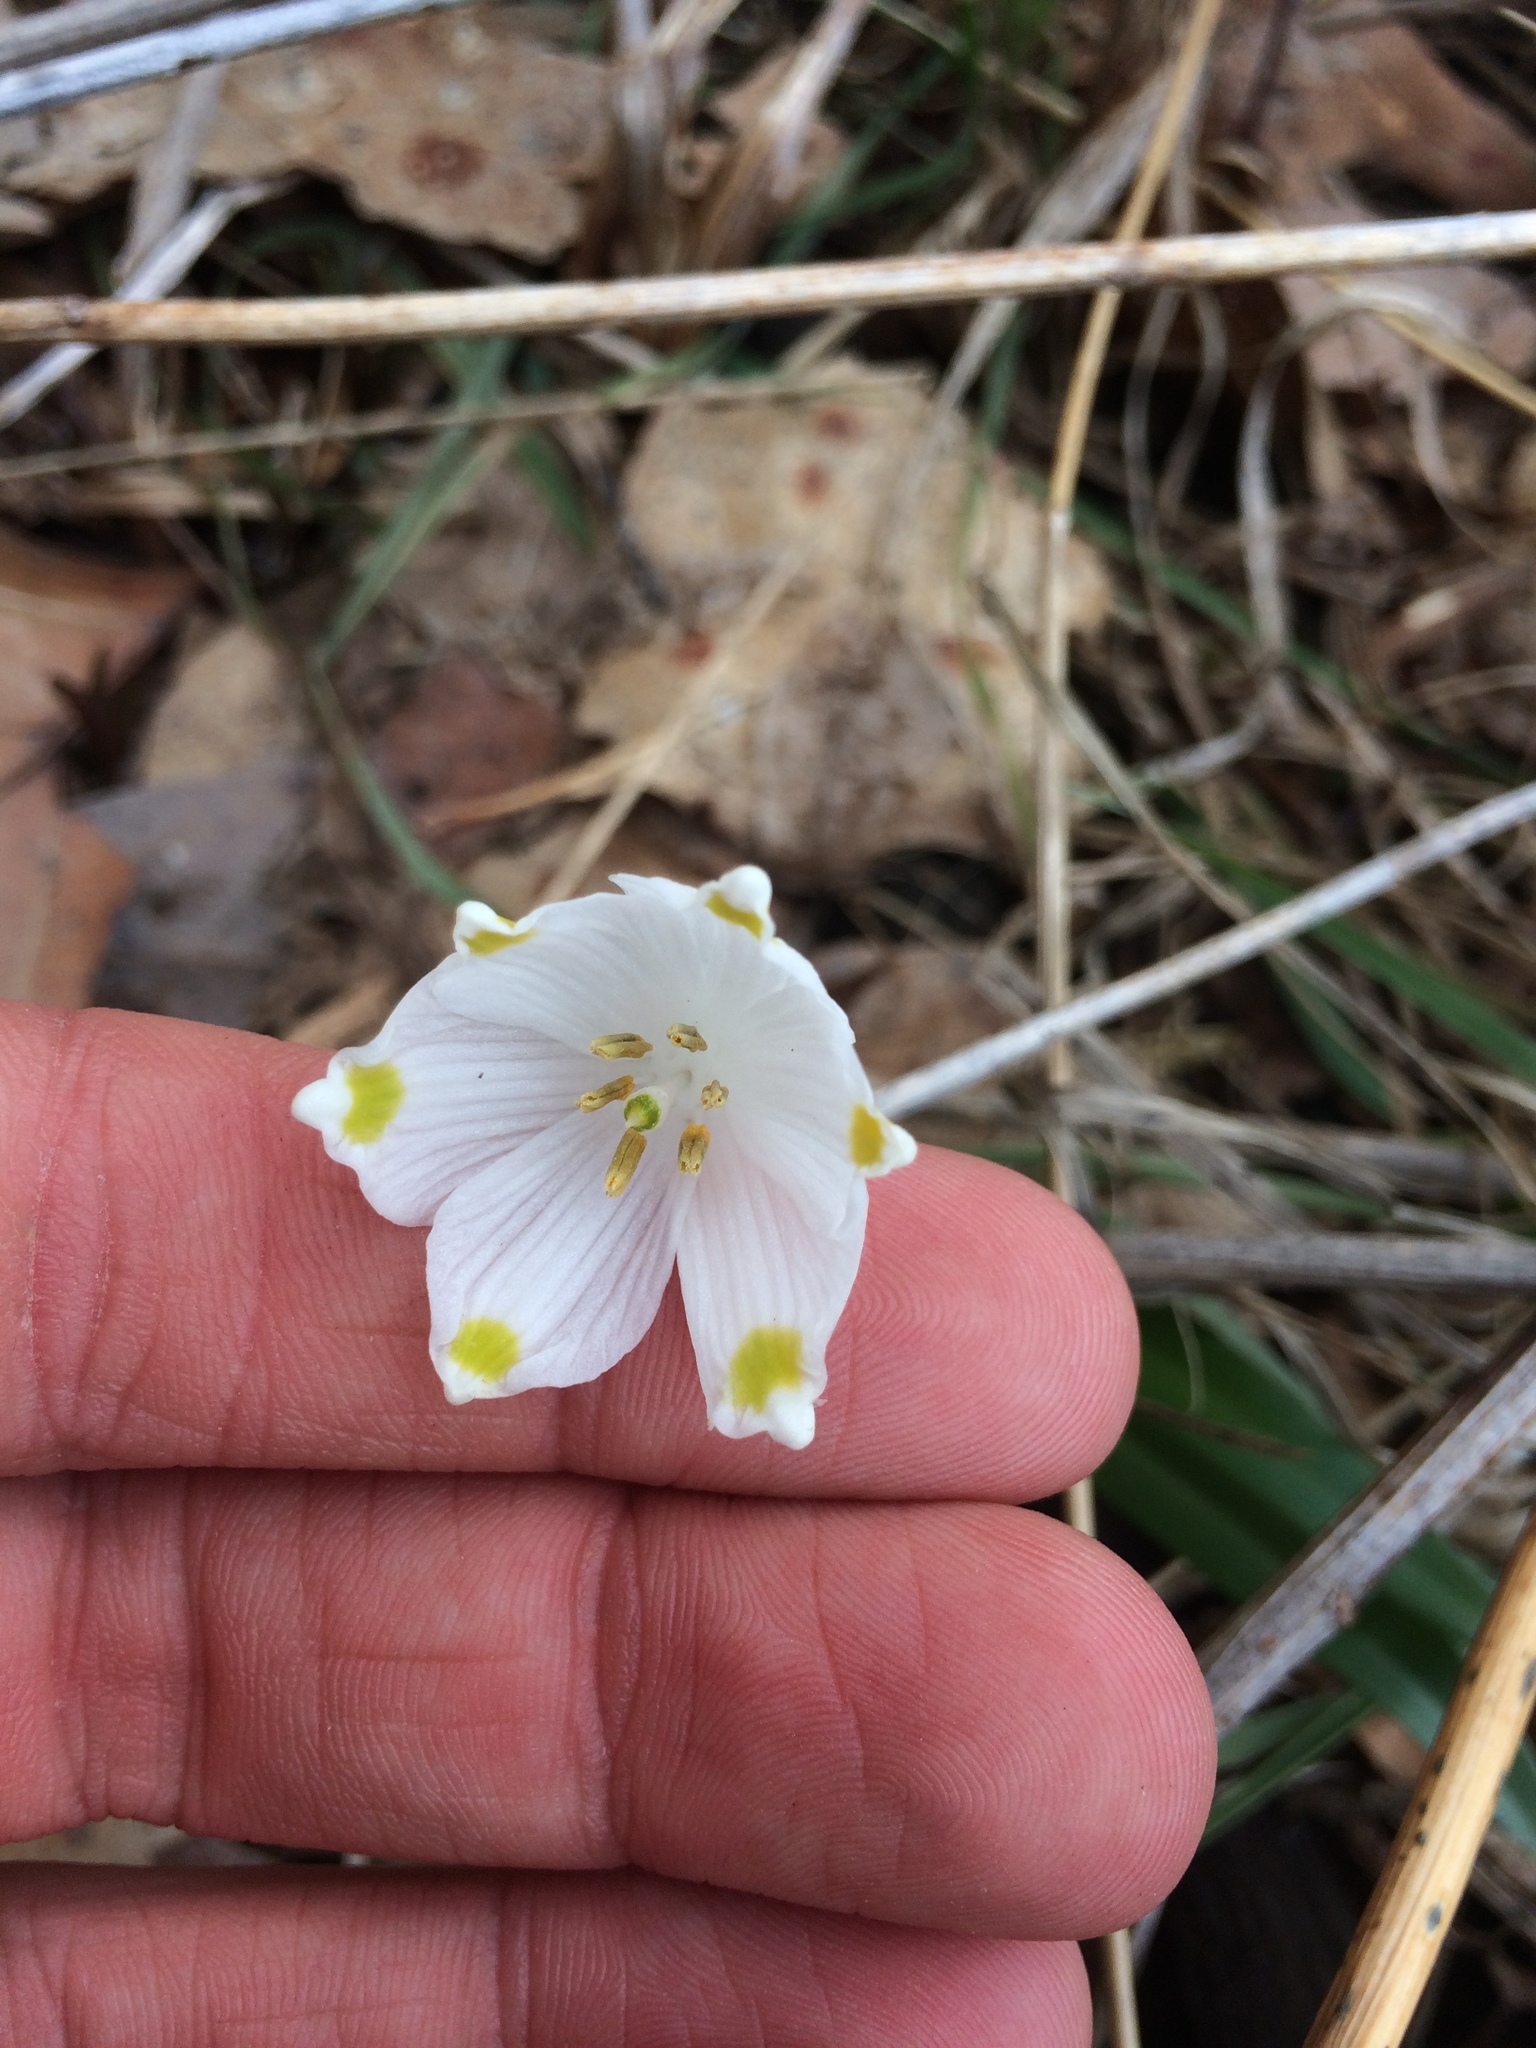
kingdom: Plantae
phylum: Tracheophyta
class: Liliopsida
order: Asparagales
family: Amaryllidaceae
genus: Leucojum
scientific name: Leucojum vernum
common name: Spring snowflake
